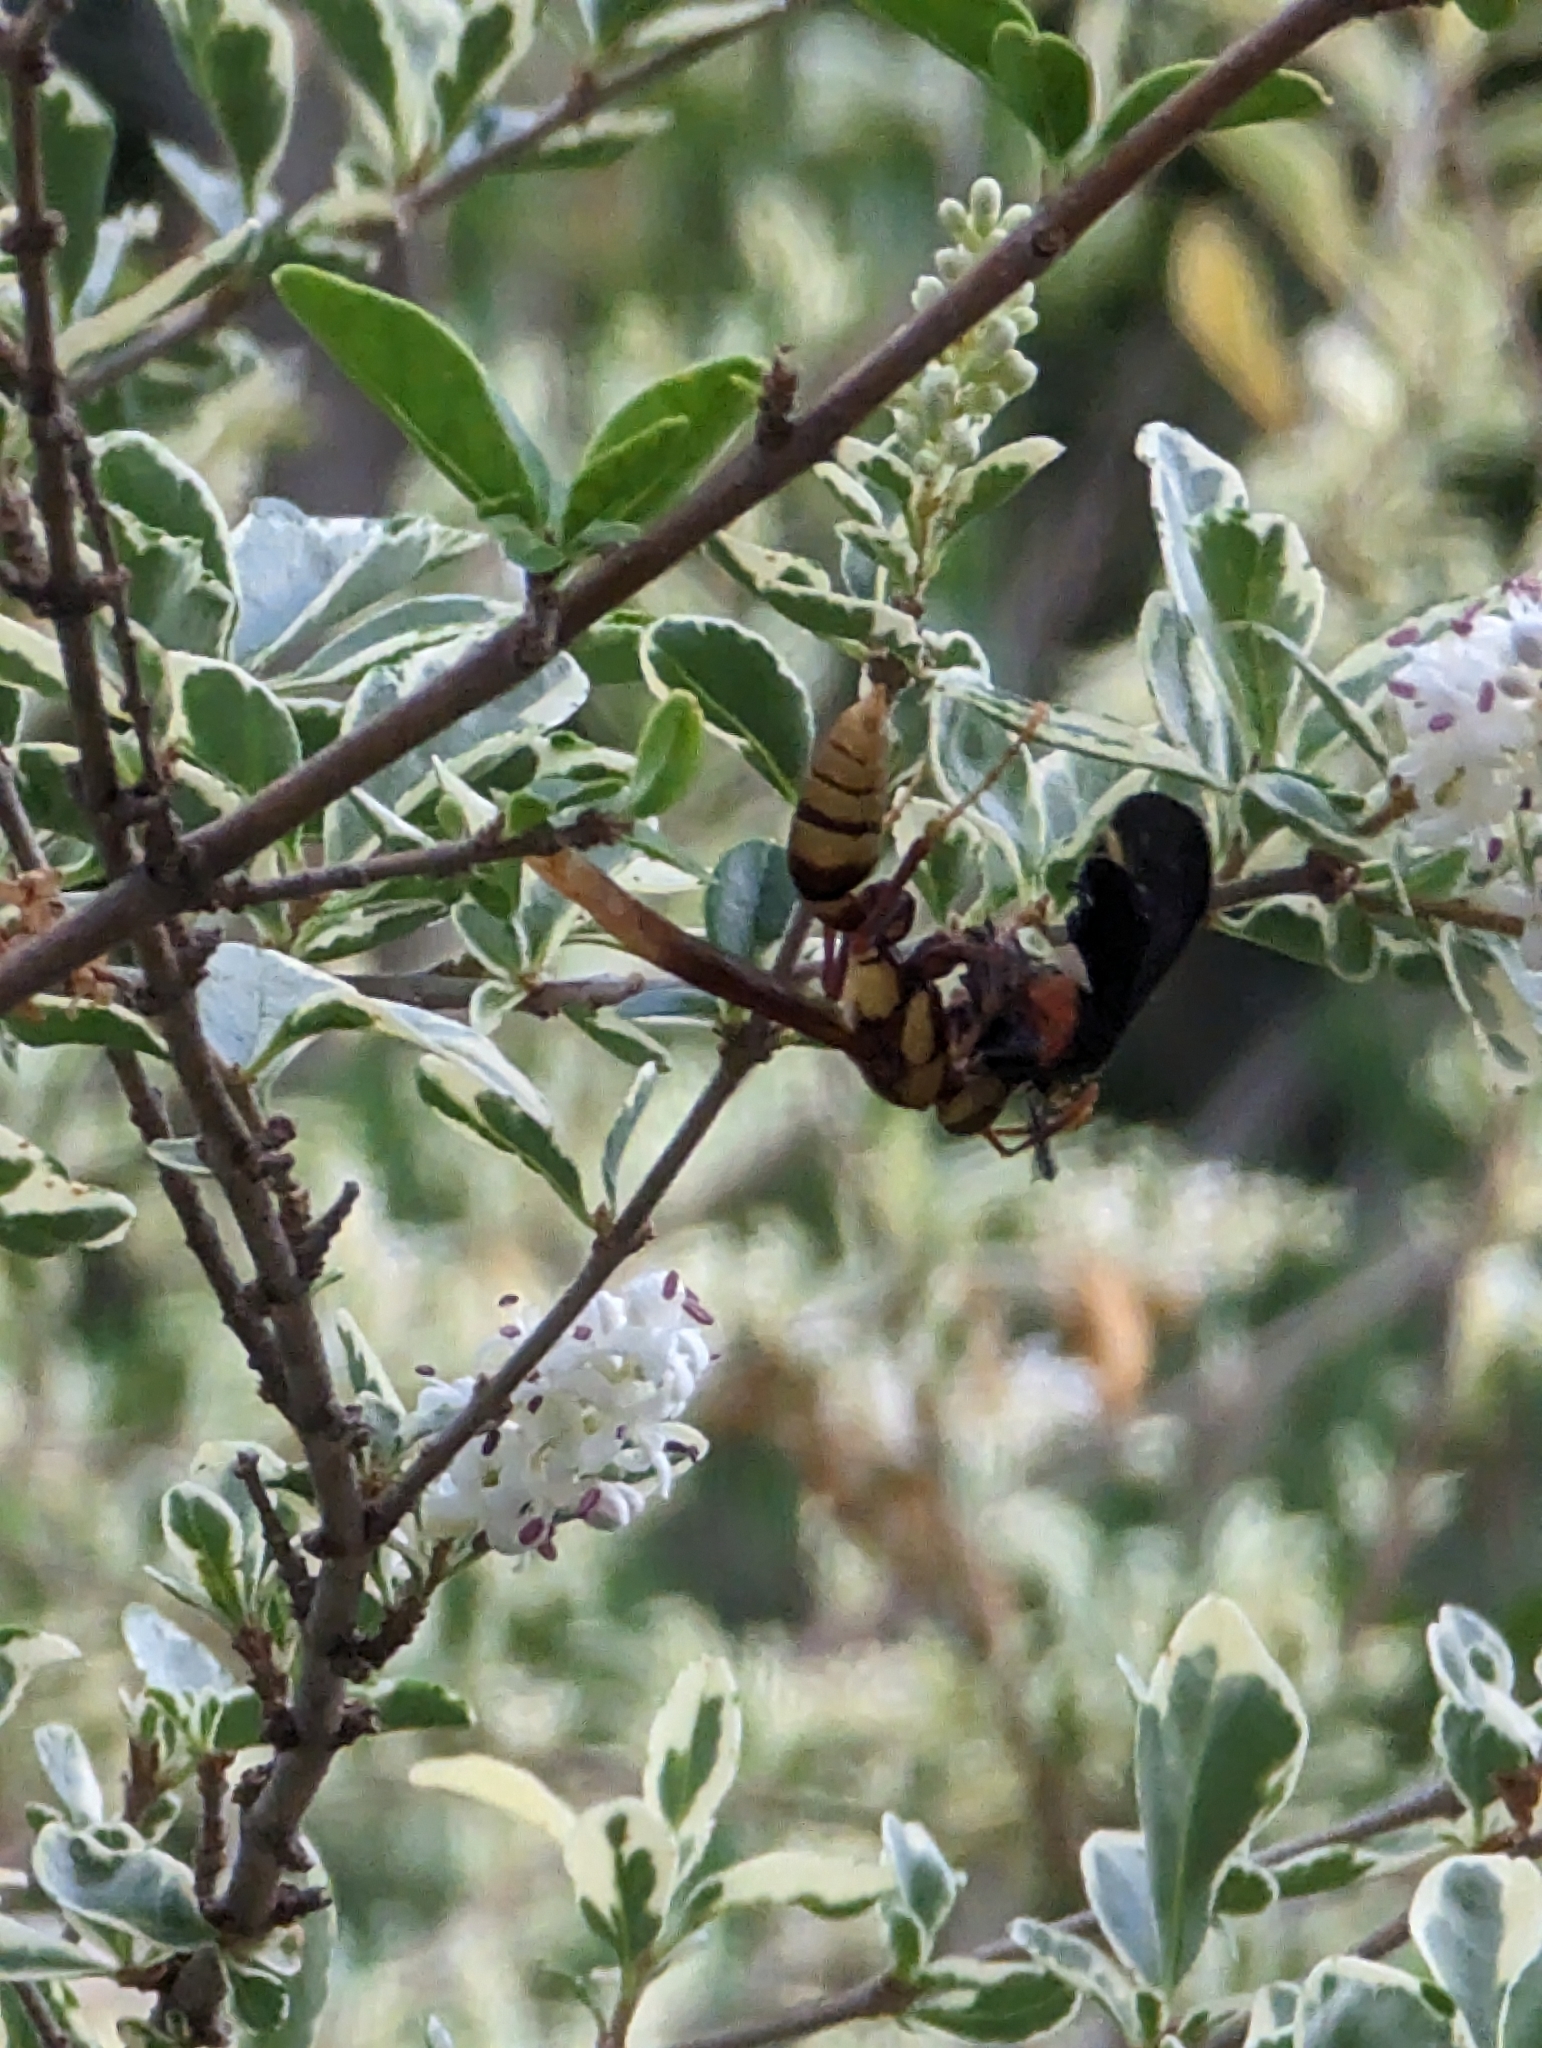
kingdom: Animalia
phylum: Arthropoda
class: Insecta
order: Hymenoptera
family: Eumenidae
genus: Polistes
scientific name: Polistes major
